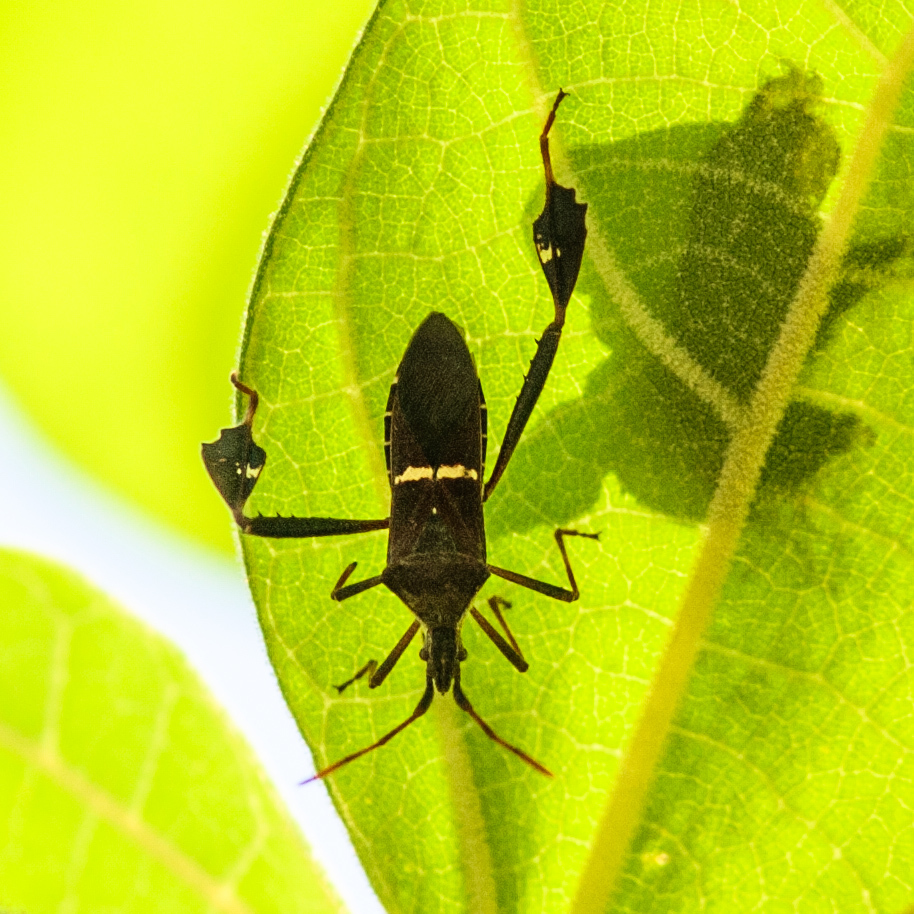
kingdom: Animalia
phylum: Arthropoda
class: Insecta
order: Hemiptera
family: Coreidae
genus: Leptoglossus
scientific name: Leptoglossus phyllopus
